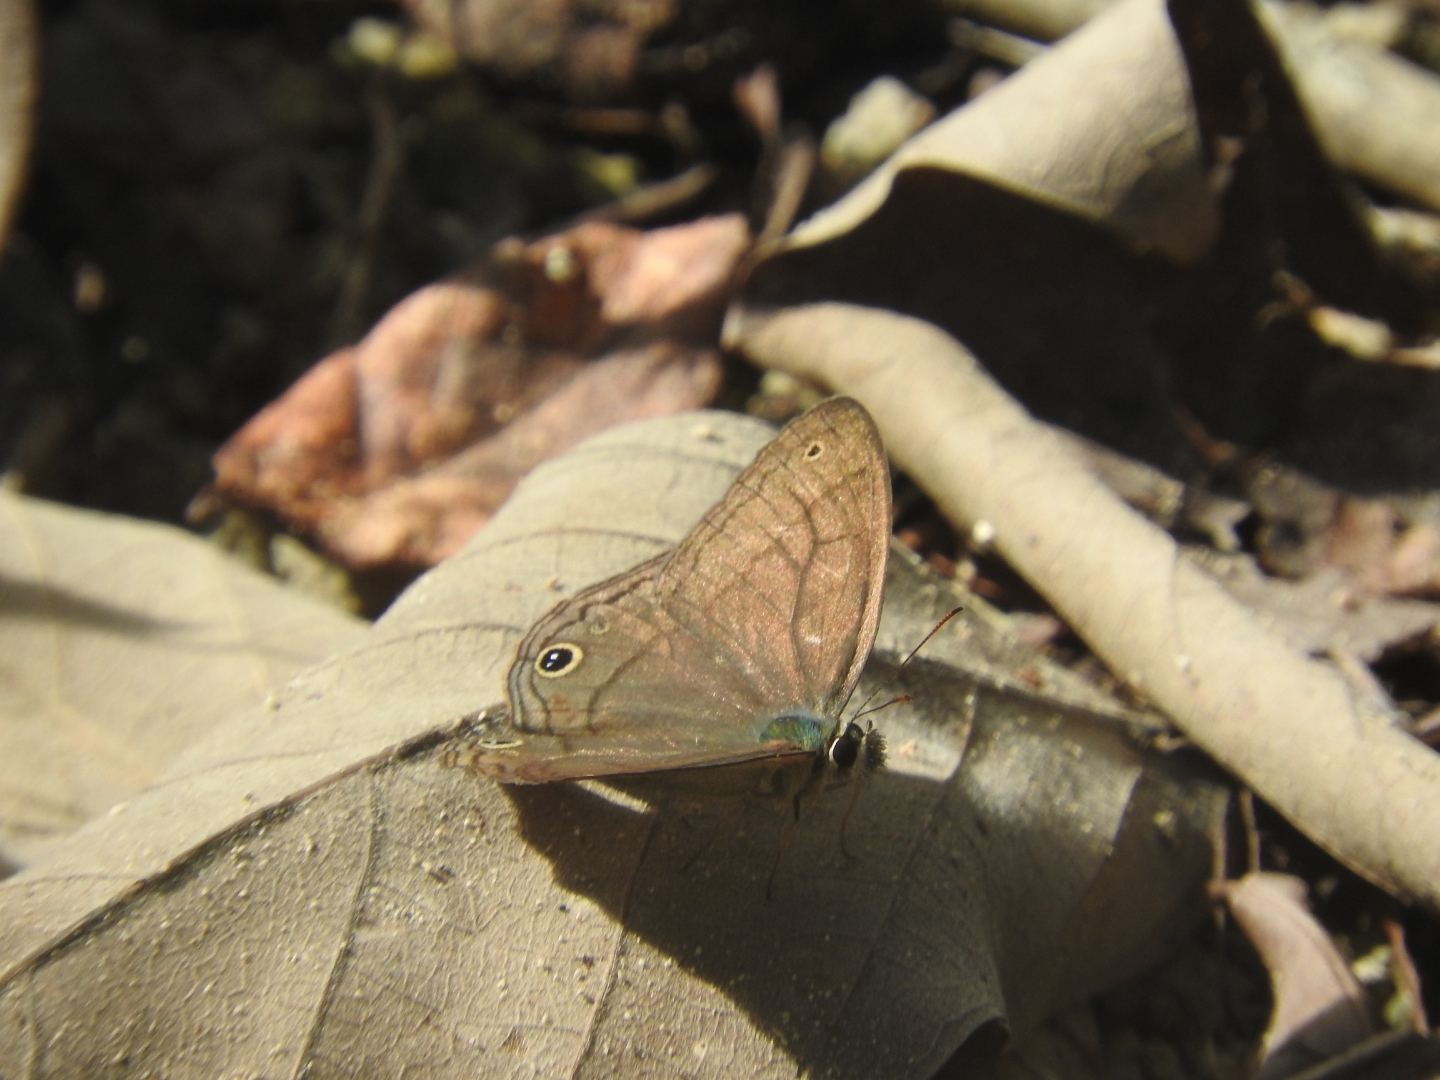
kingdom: Animalia
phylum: Arthropoda
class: Insecta
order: Lepidoptera
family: Nymphalidae
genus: Euptychia
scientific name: Euptychia Cissia pompilia
